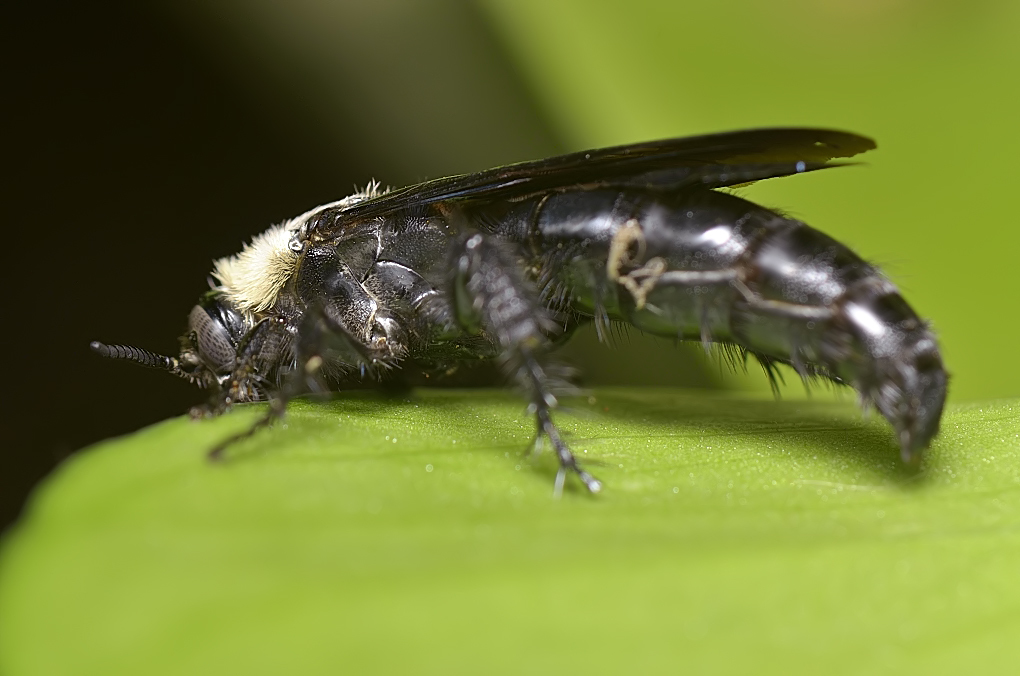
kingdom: Animalia
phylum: Arthropoda
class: Insecta
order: Hymenoptera
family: Scoliidae
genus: Campsomeriella
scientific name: Campsomeriella collaris
